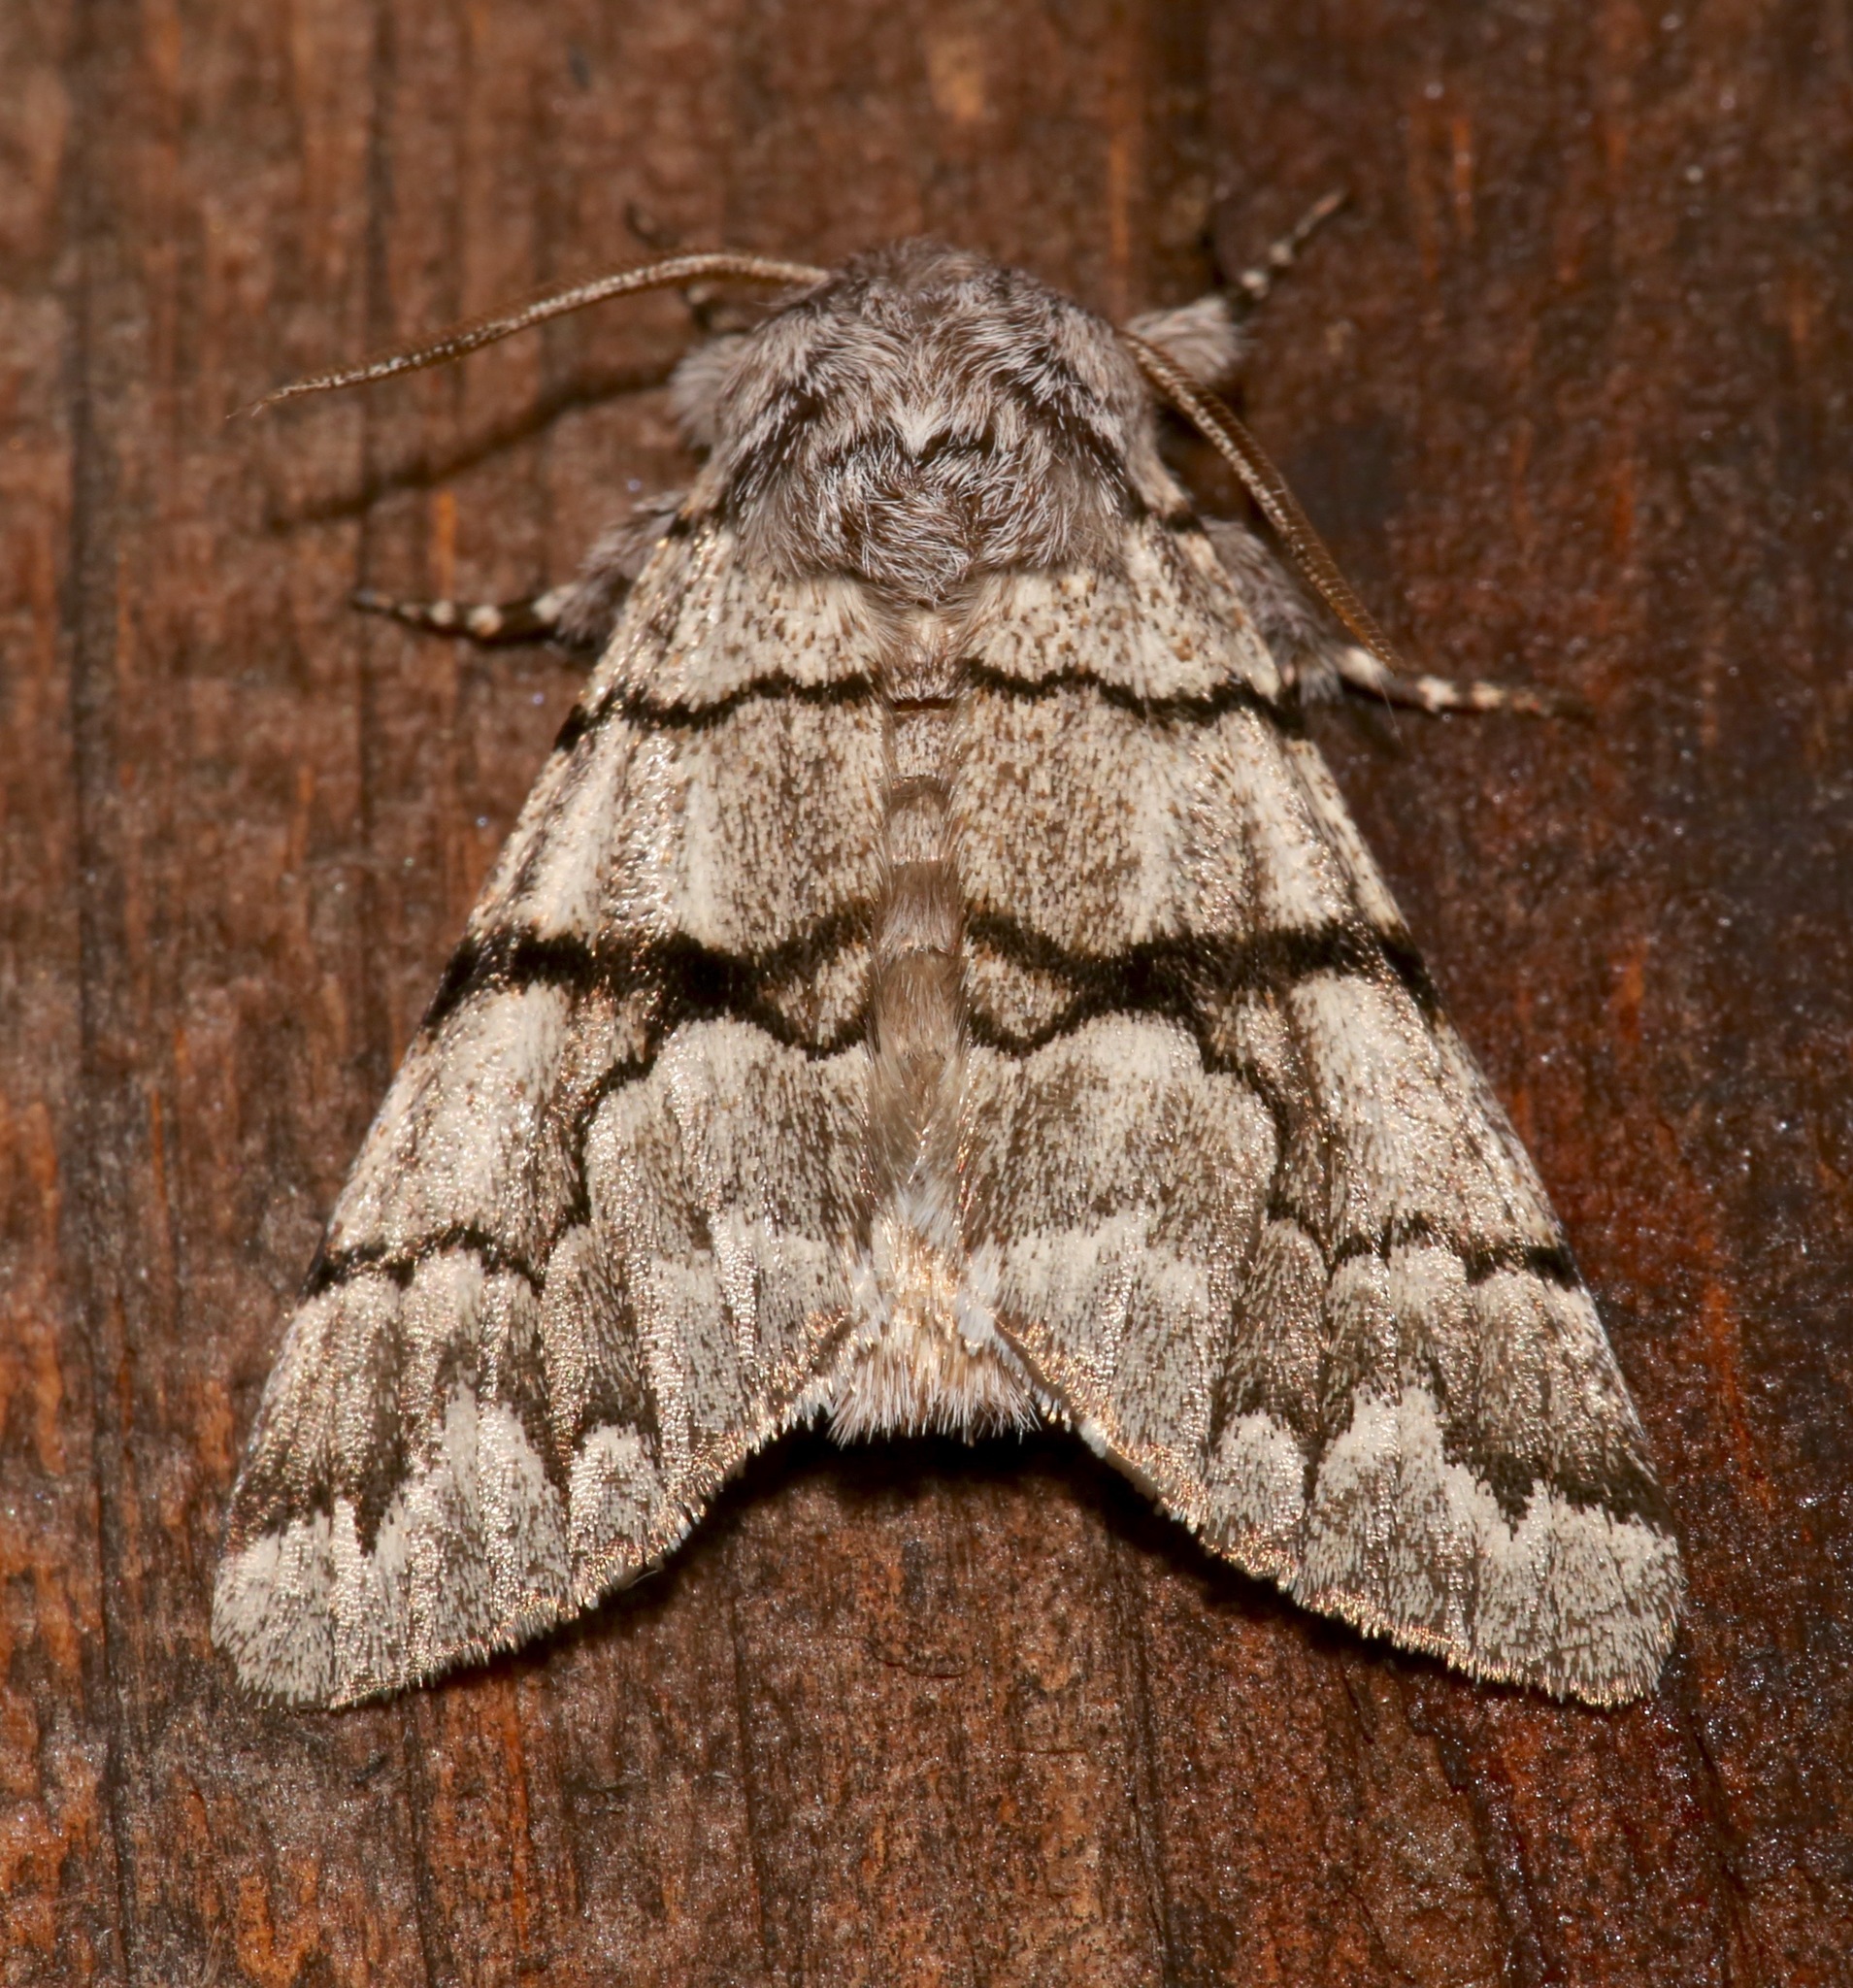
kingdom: Animalia
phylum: Arthropoda
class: Insecta
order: Lepidoptera
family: Noctuidae
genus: Panthea
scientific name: Panthea furcilla
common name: Eastern panthea moth
